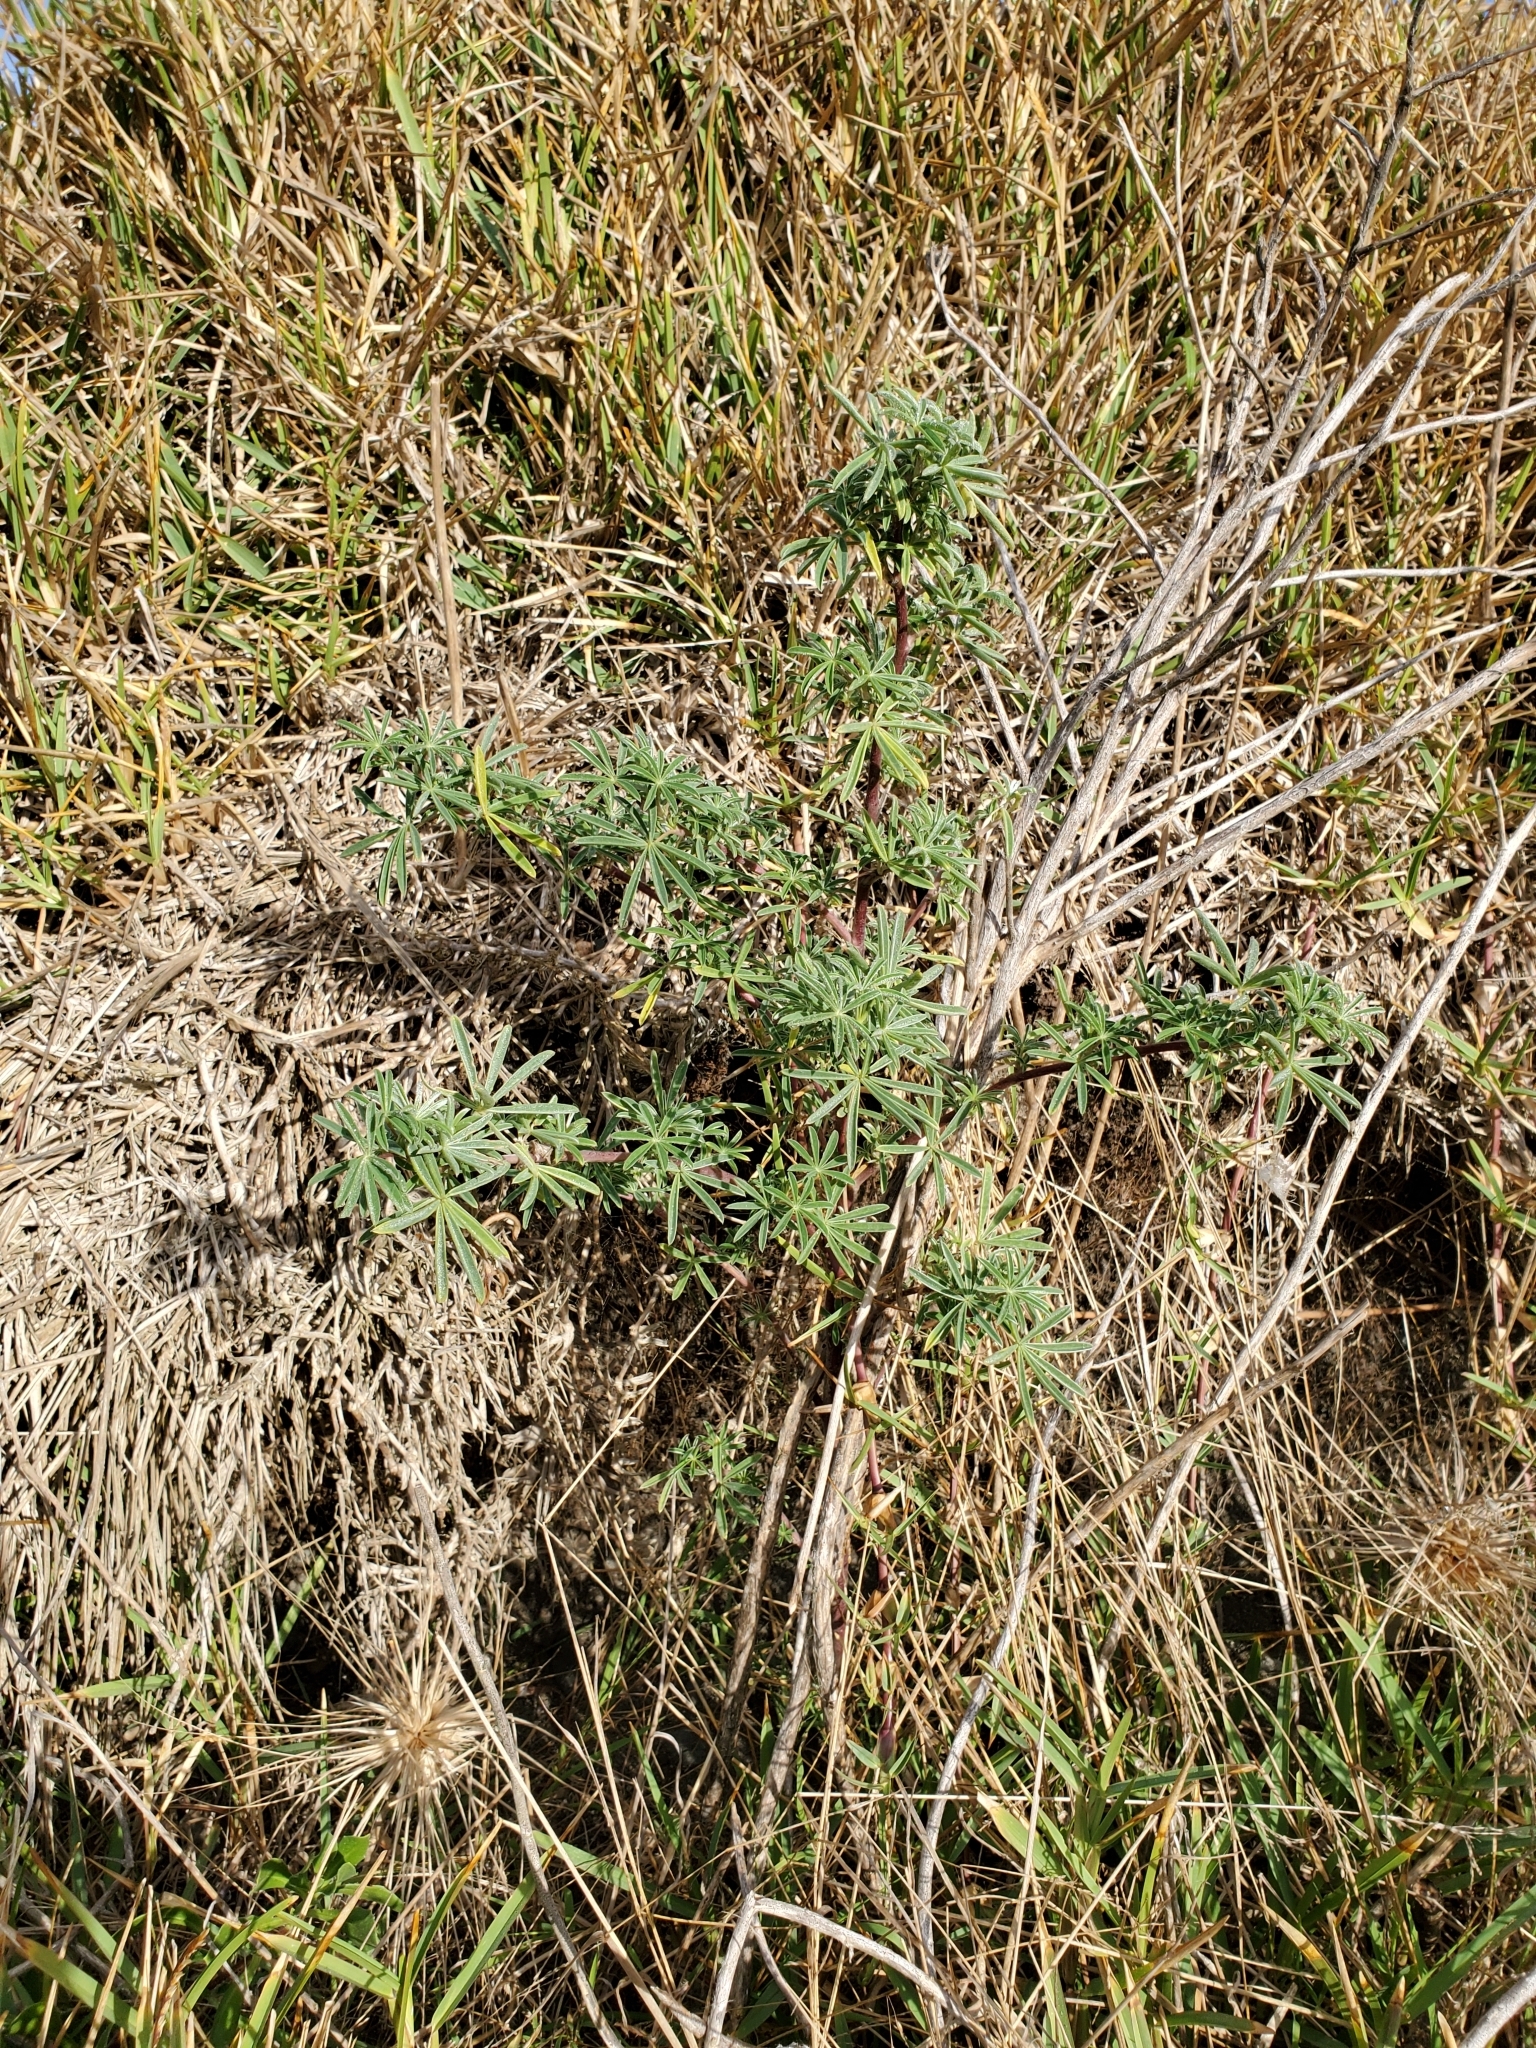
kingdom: Plantae
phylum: Tracheophyta
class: Magnoliopsida
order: Fabales
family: Fabaceae
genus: Lupinus
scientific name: Lupinus arboreus
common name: Yellow bush lupine
